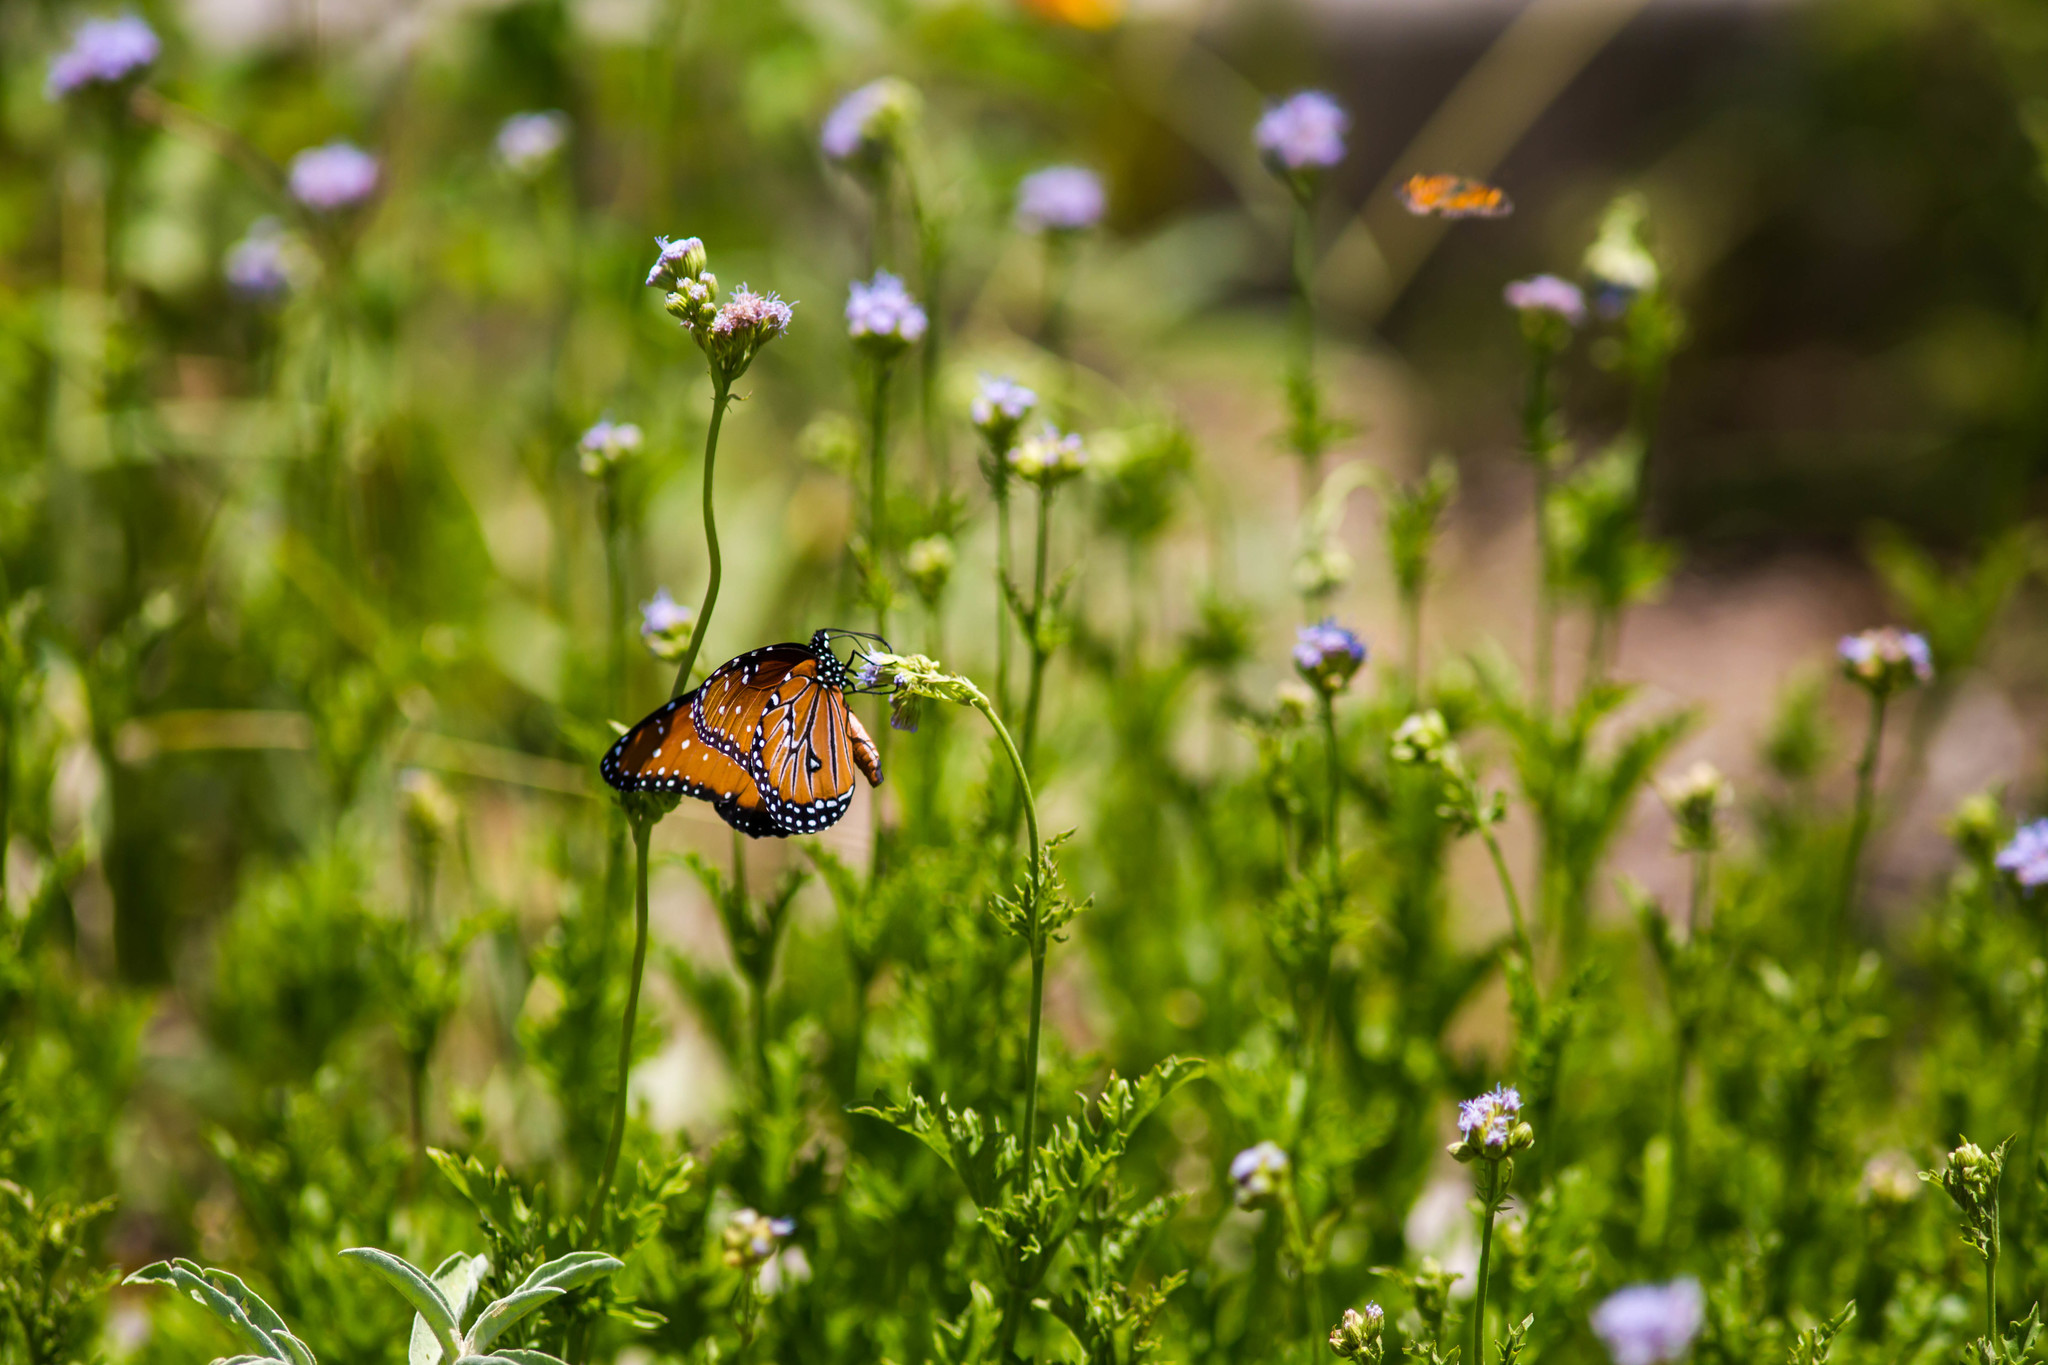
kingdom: Animalia
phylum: Arthropoda
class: Insecta
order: Lepidoptera
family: Nymphalidae
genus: Danaus
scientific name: Danaus gilippus
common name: Queen
